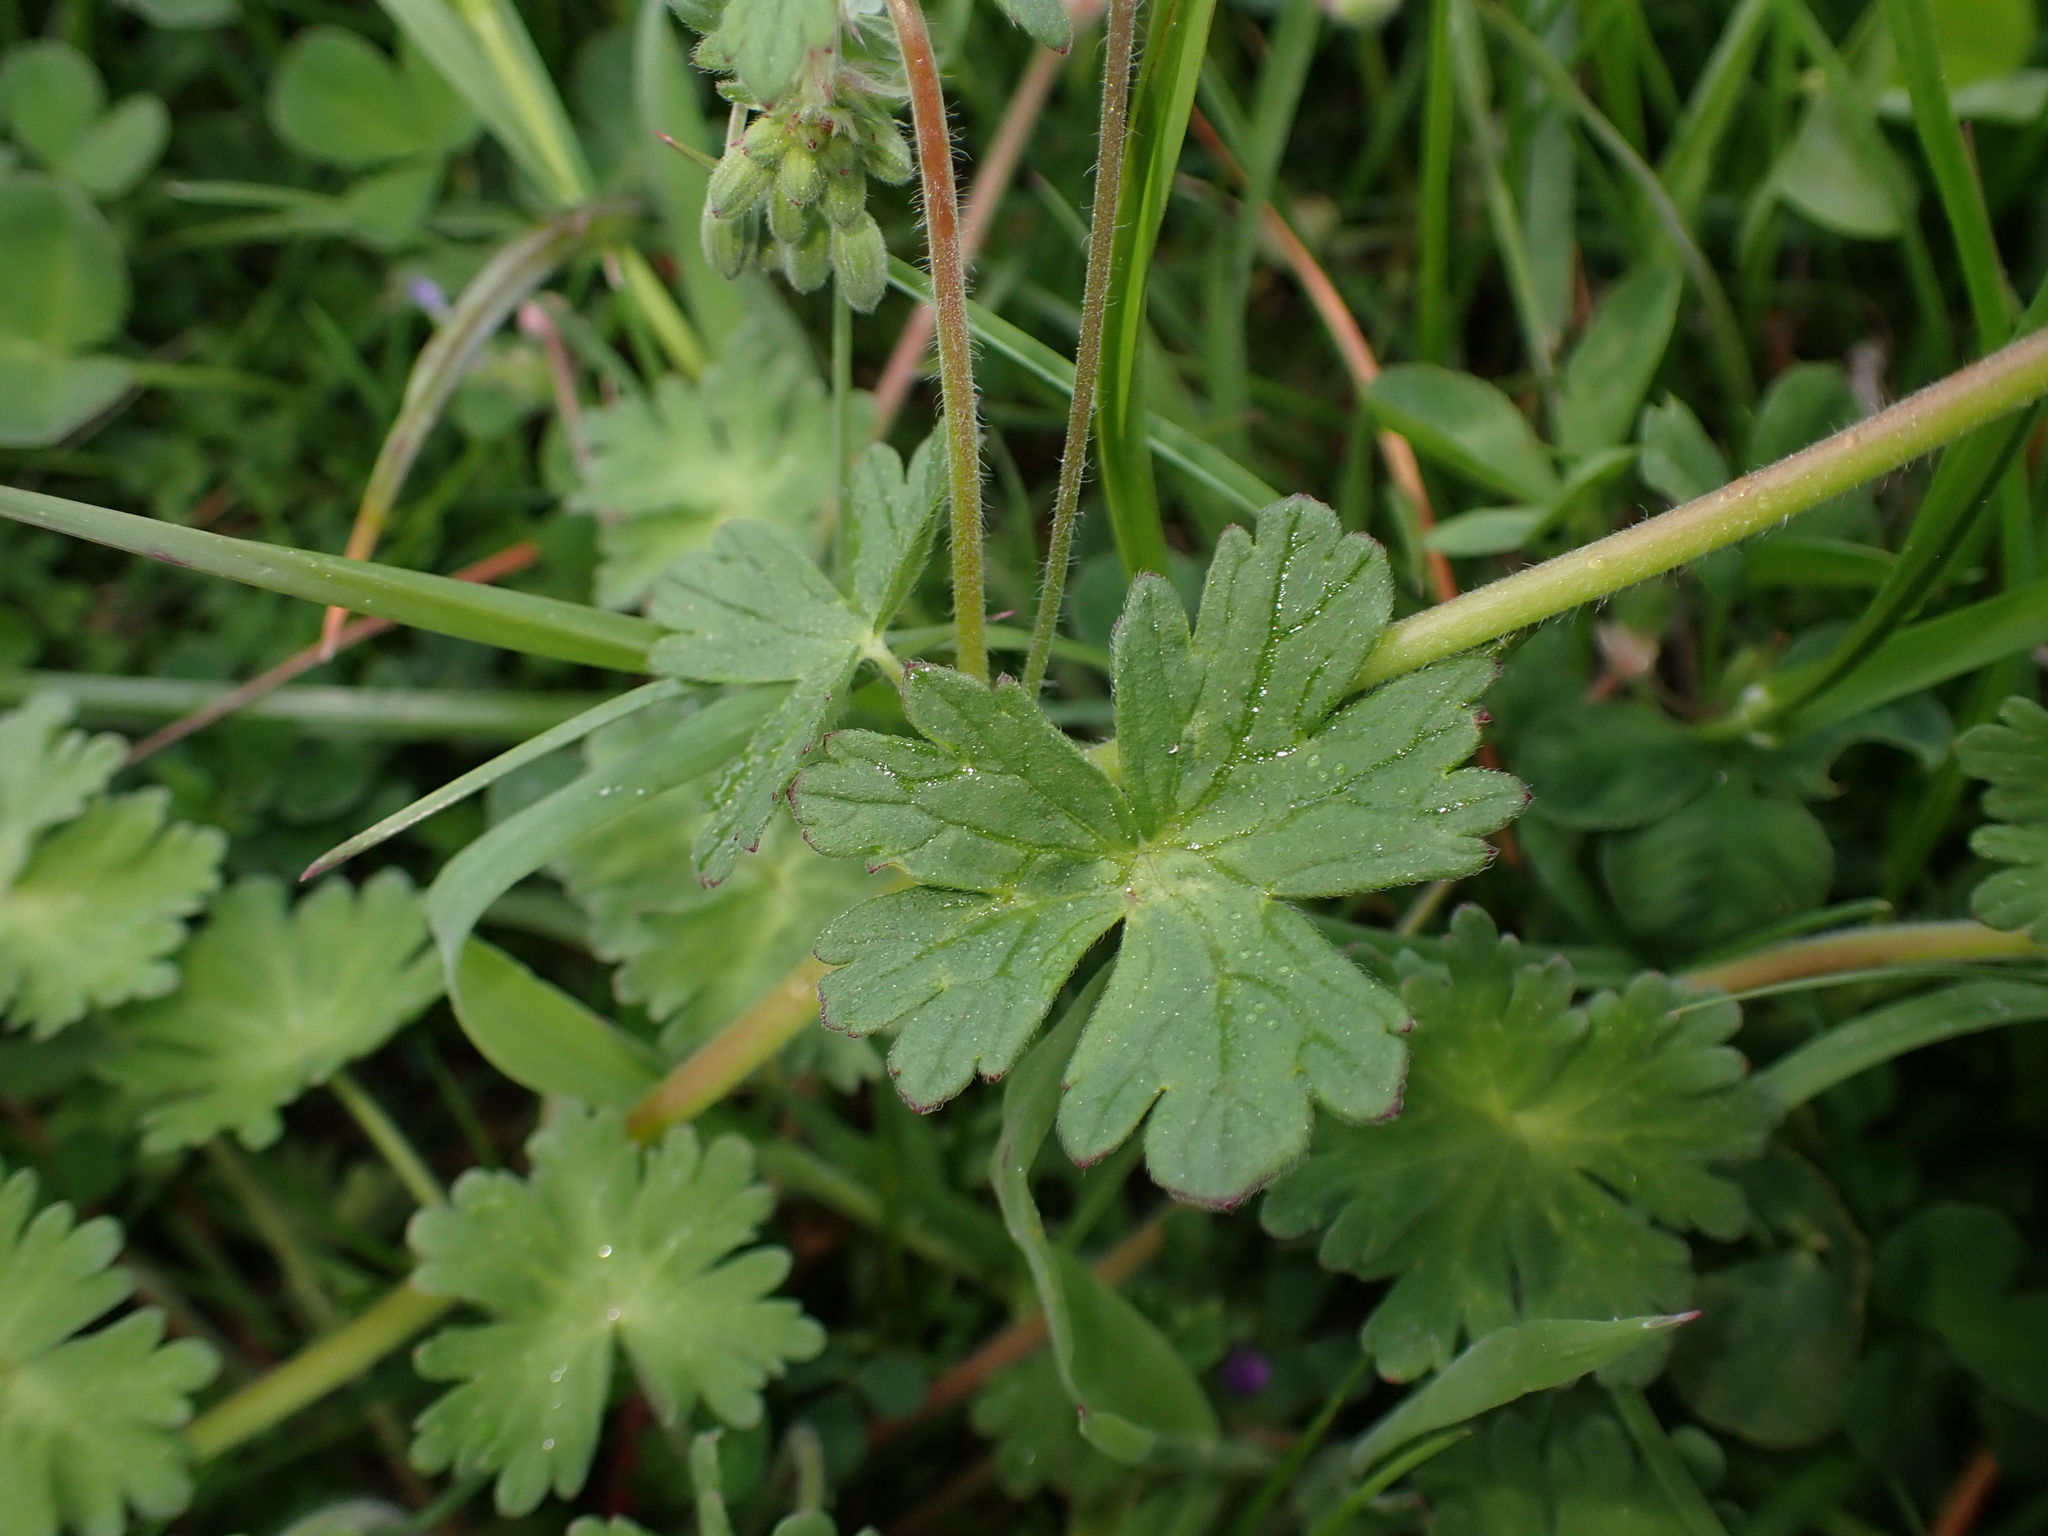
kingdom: Plantae
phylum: Tracheophyta
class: Magnoliopsida
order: Geraniales
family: Geraniaceae
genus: Geranium
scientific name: Geranium pyrenaicum
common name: Hedgerow crane's-bill
